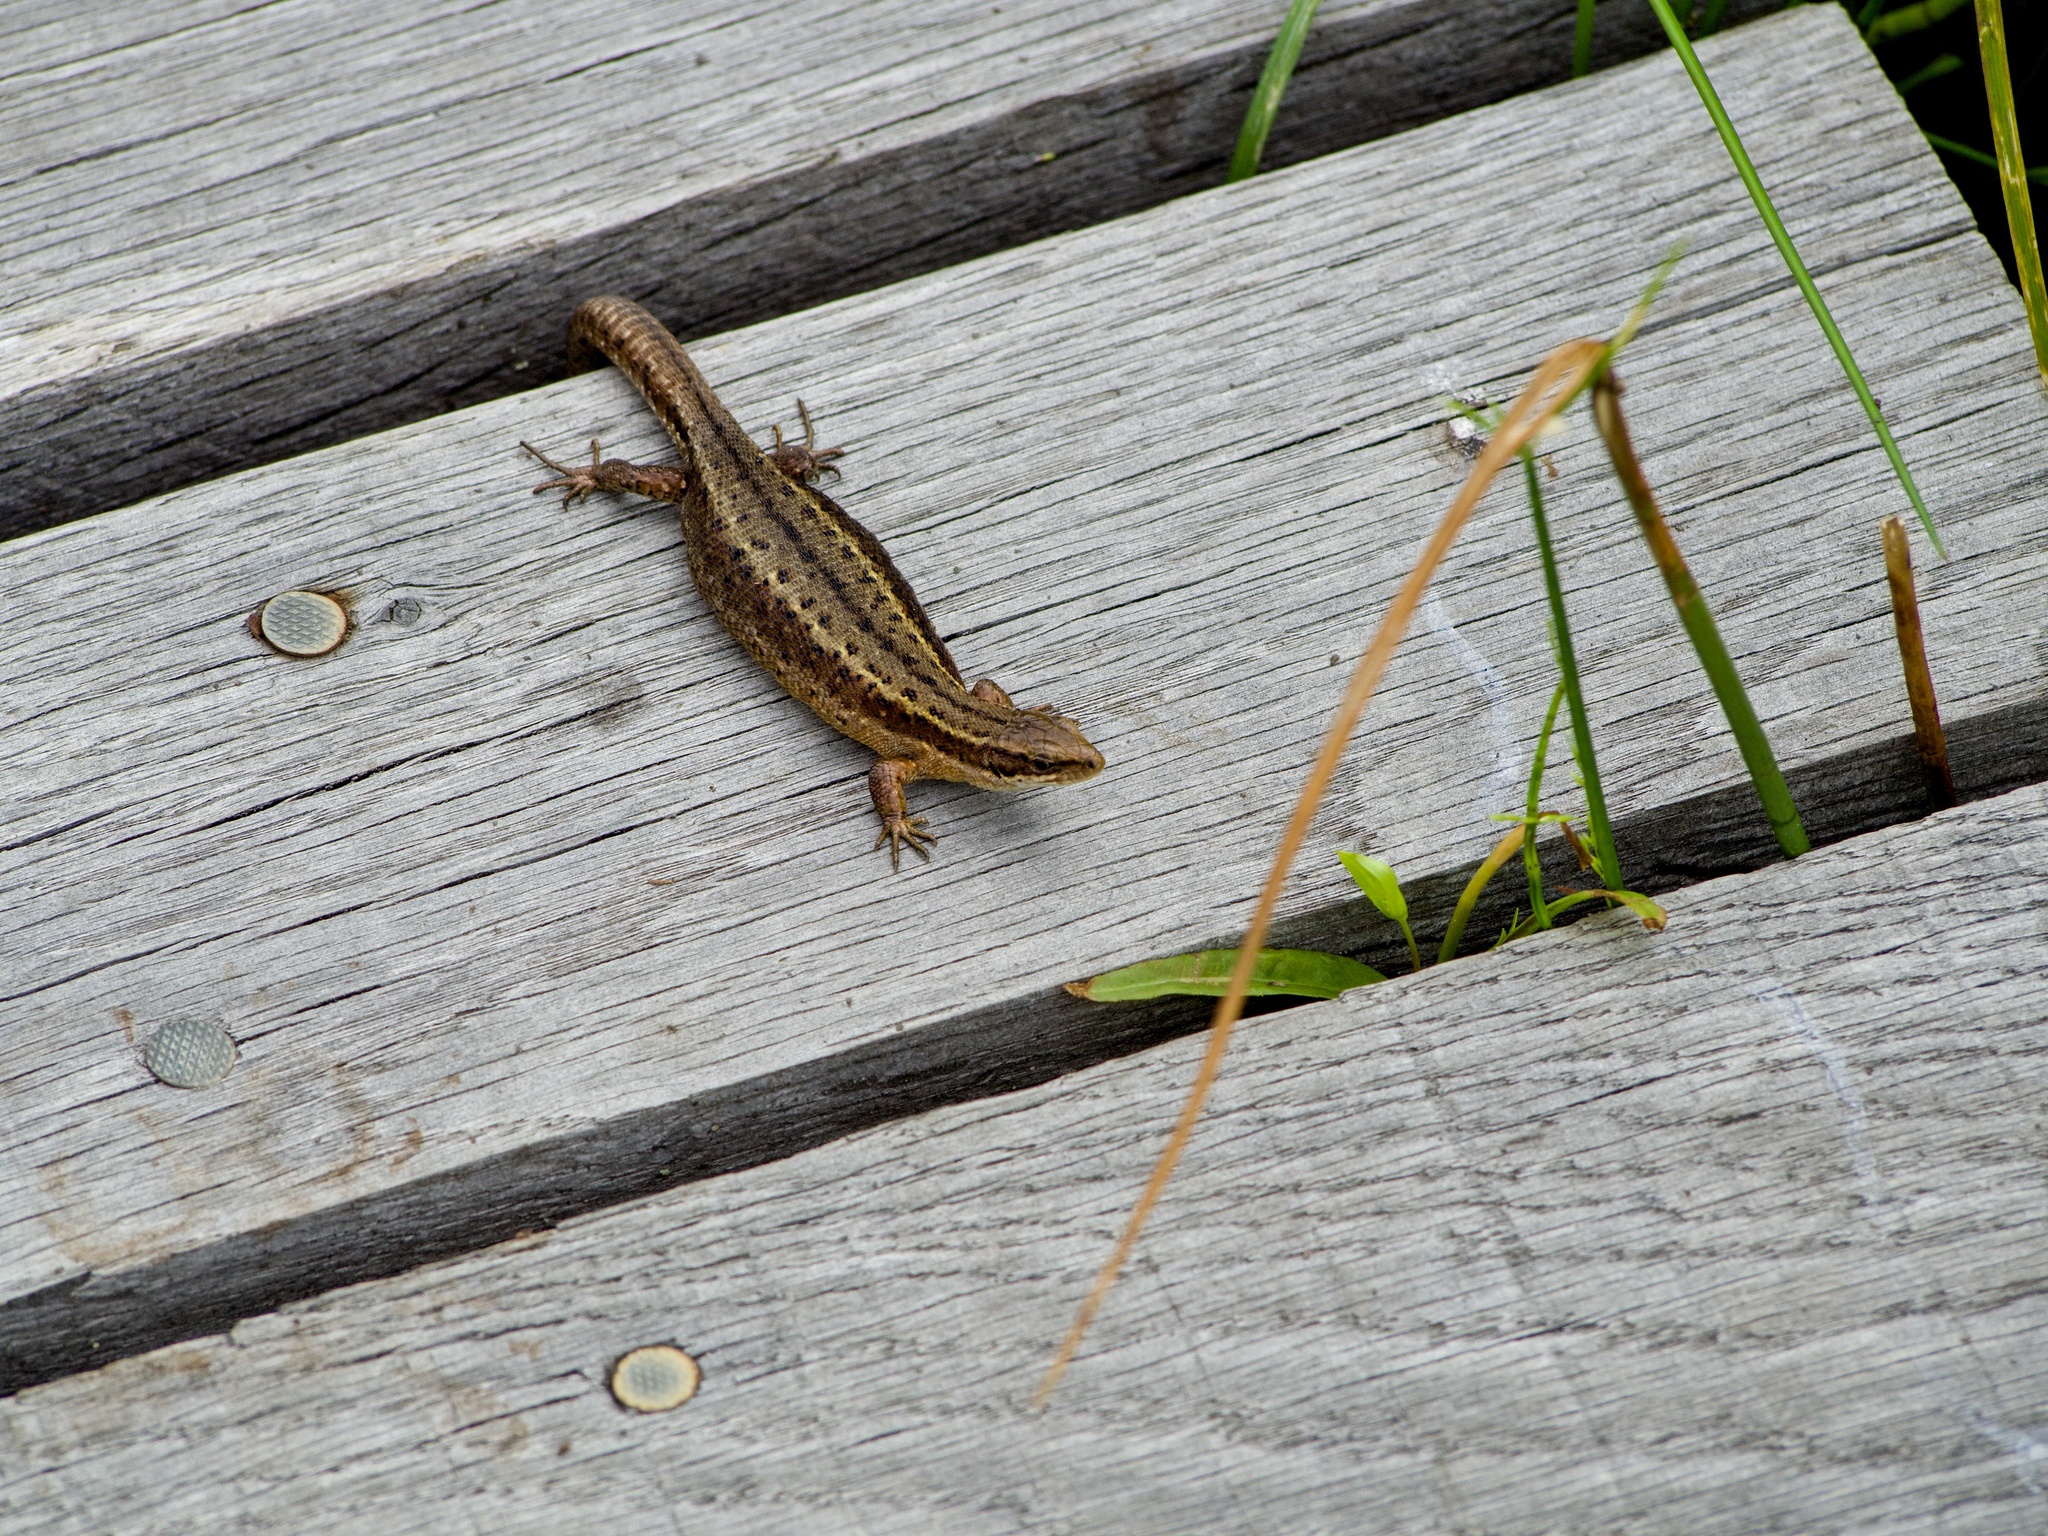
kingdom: Animalia
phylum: Chordata
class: Squamata
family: Lacertidae
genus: Zootoca
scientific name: Zootoca vivipara
